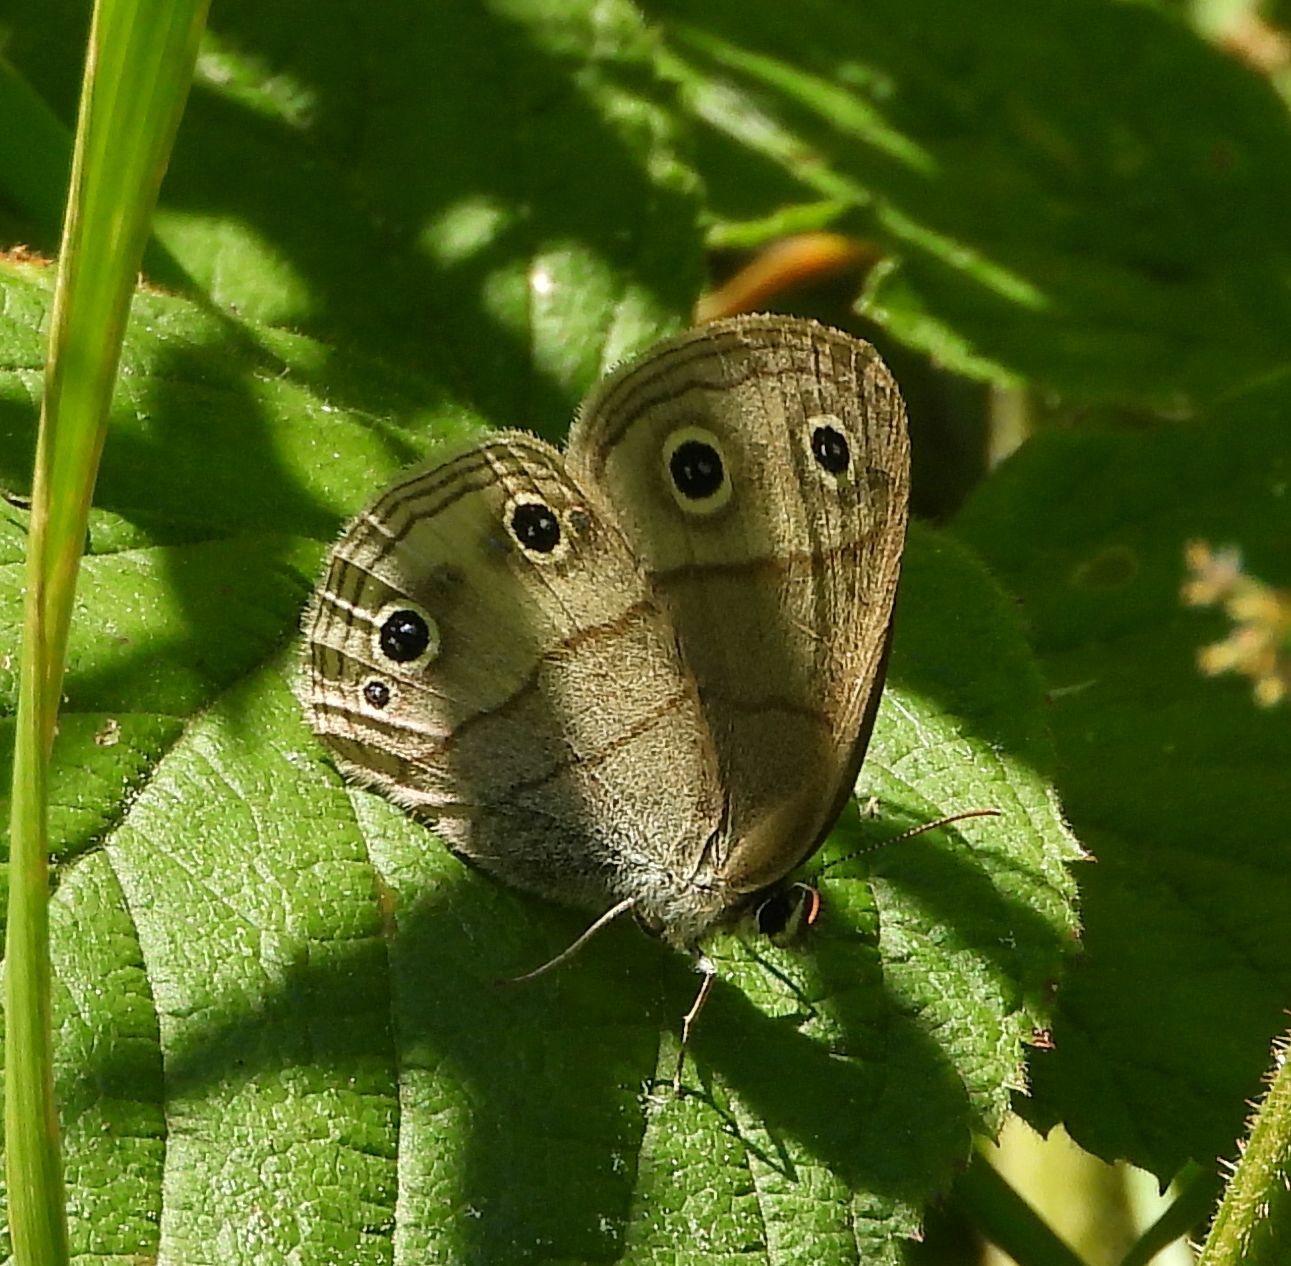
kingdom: Animalia
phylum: Arthropoda
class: Insecta
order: Lepidoptera
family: Nymphalidae
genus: Euptychia
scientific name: Euptychia cymela
